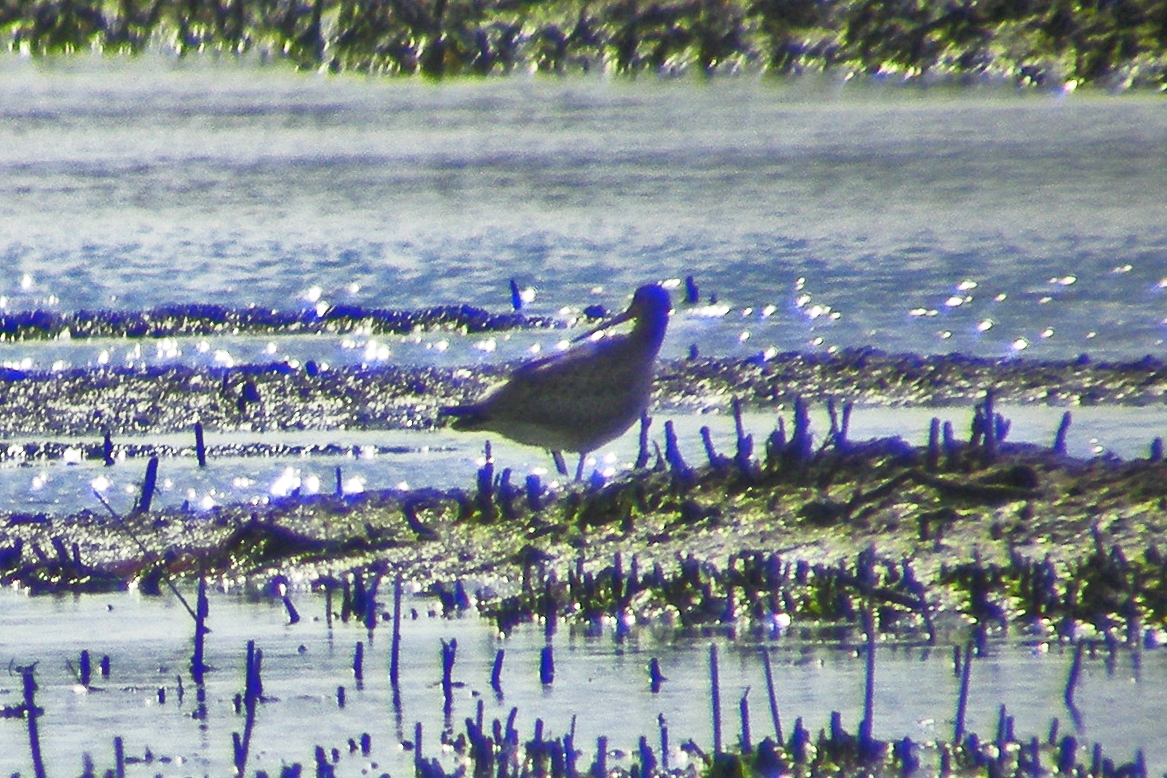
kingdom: Animalia
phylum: Chordata
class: Aves
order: Charadriiformes
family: Scolopacidae
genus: Limosa
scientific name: Limosa haemastica
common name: Hudsonian godwit
